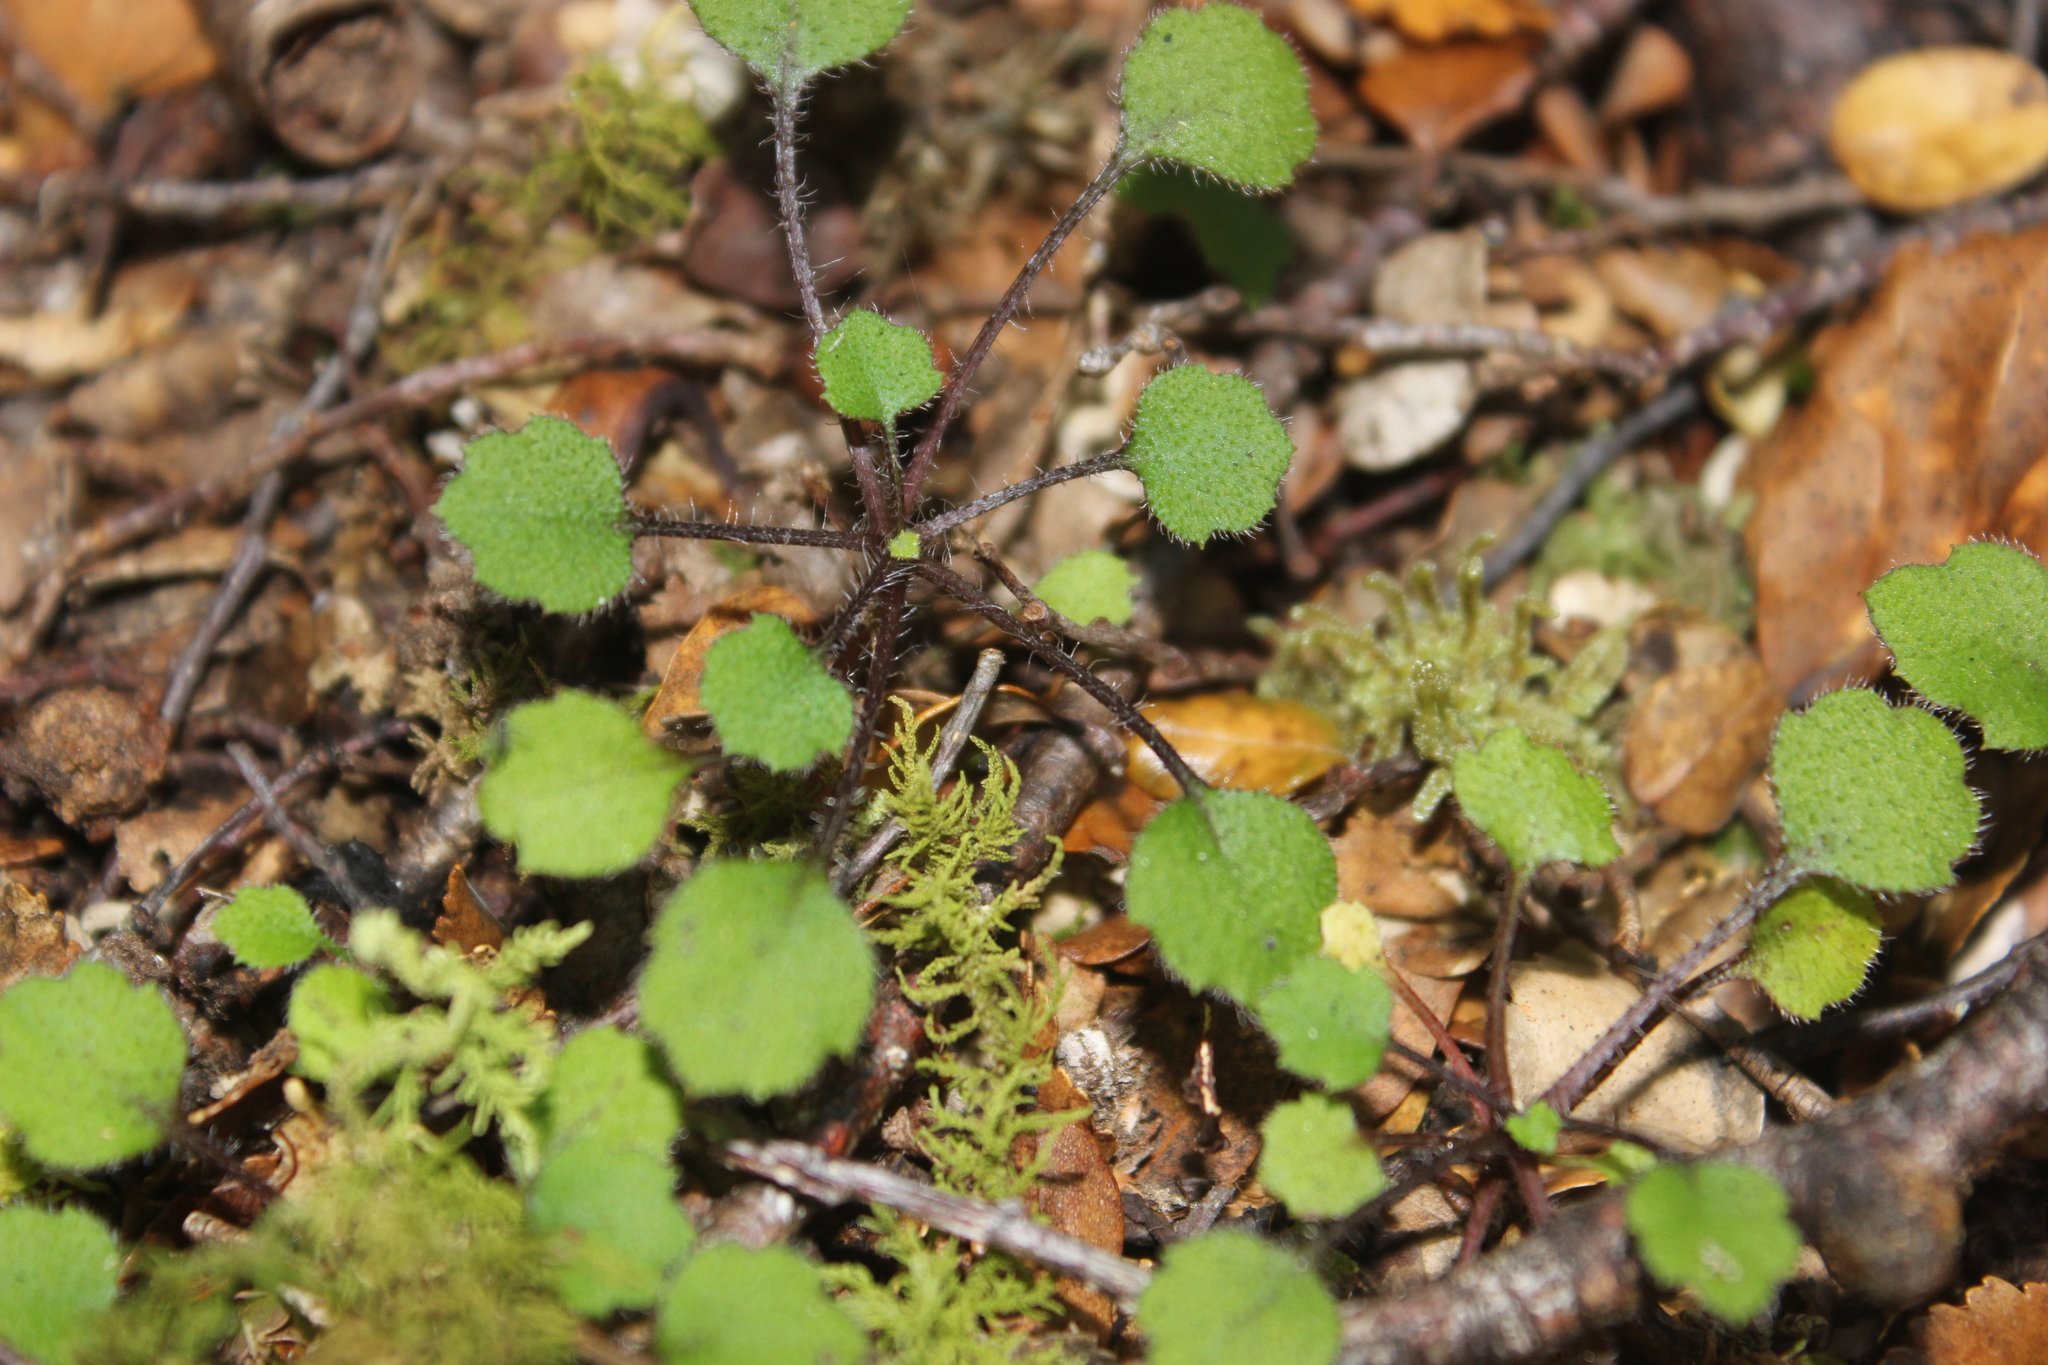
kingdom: Plantae
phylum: Tracheophyta
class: Magnoliopsida
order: Asterales
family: Asteraceae
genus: Lagenophora
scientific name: Lagenophora strangulata
